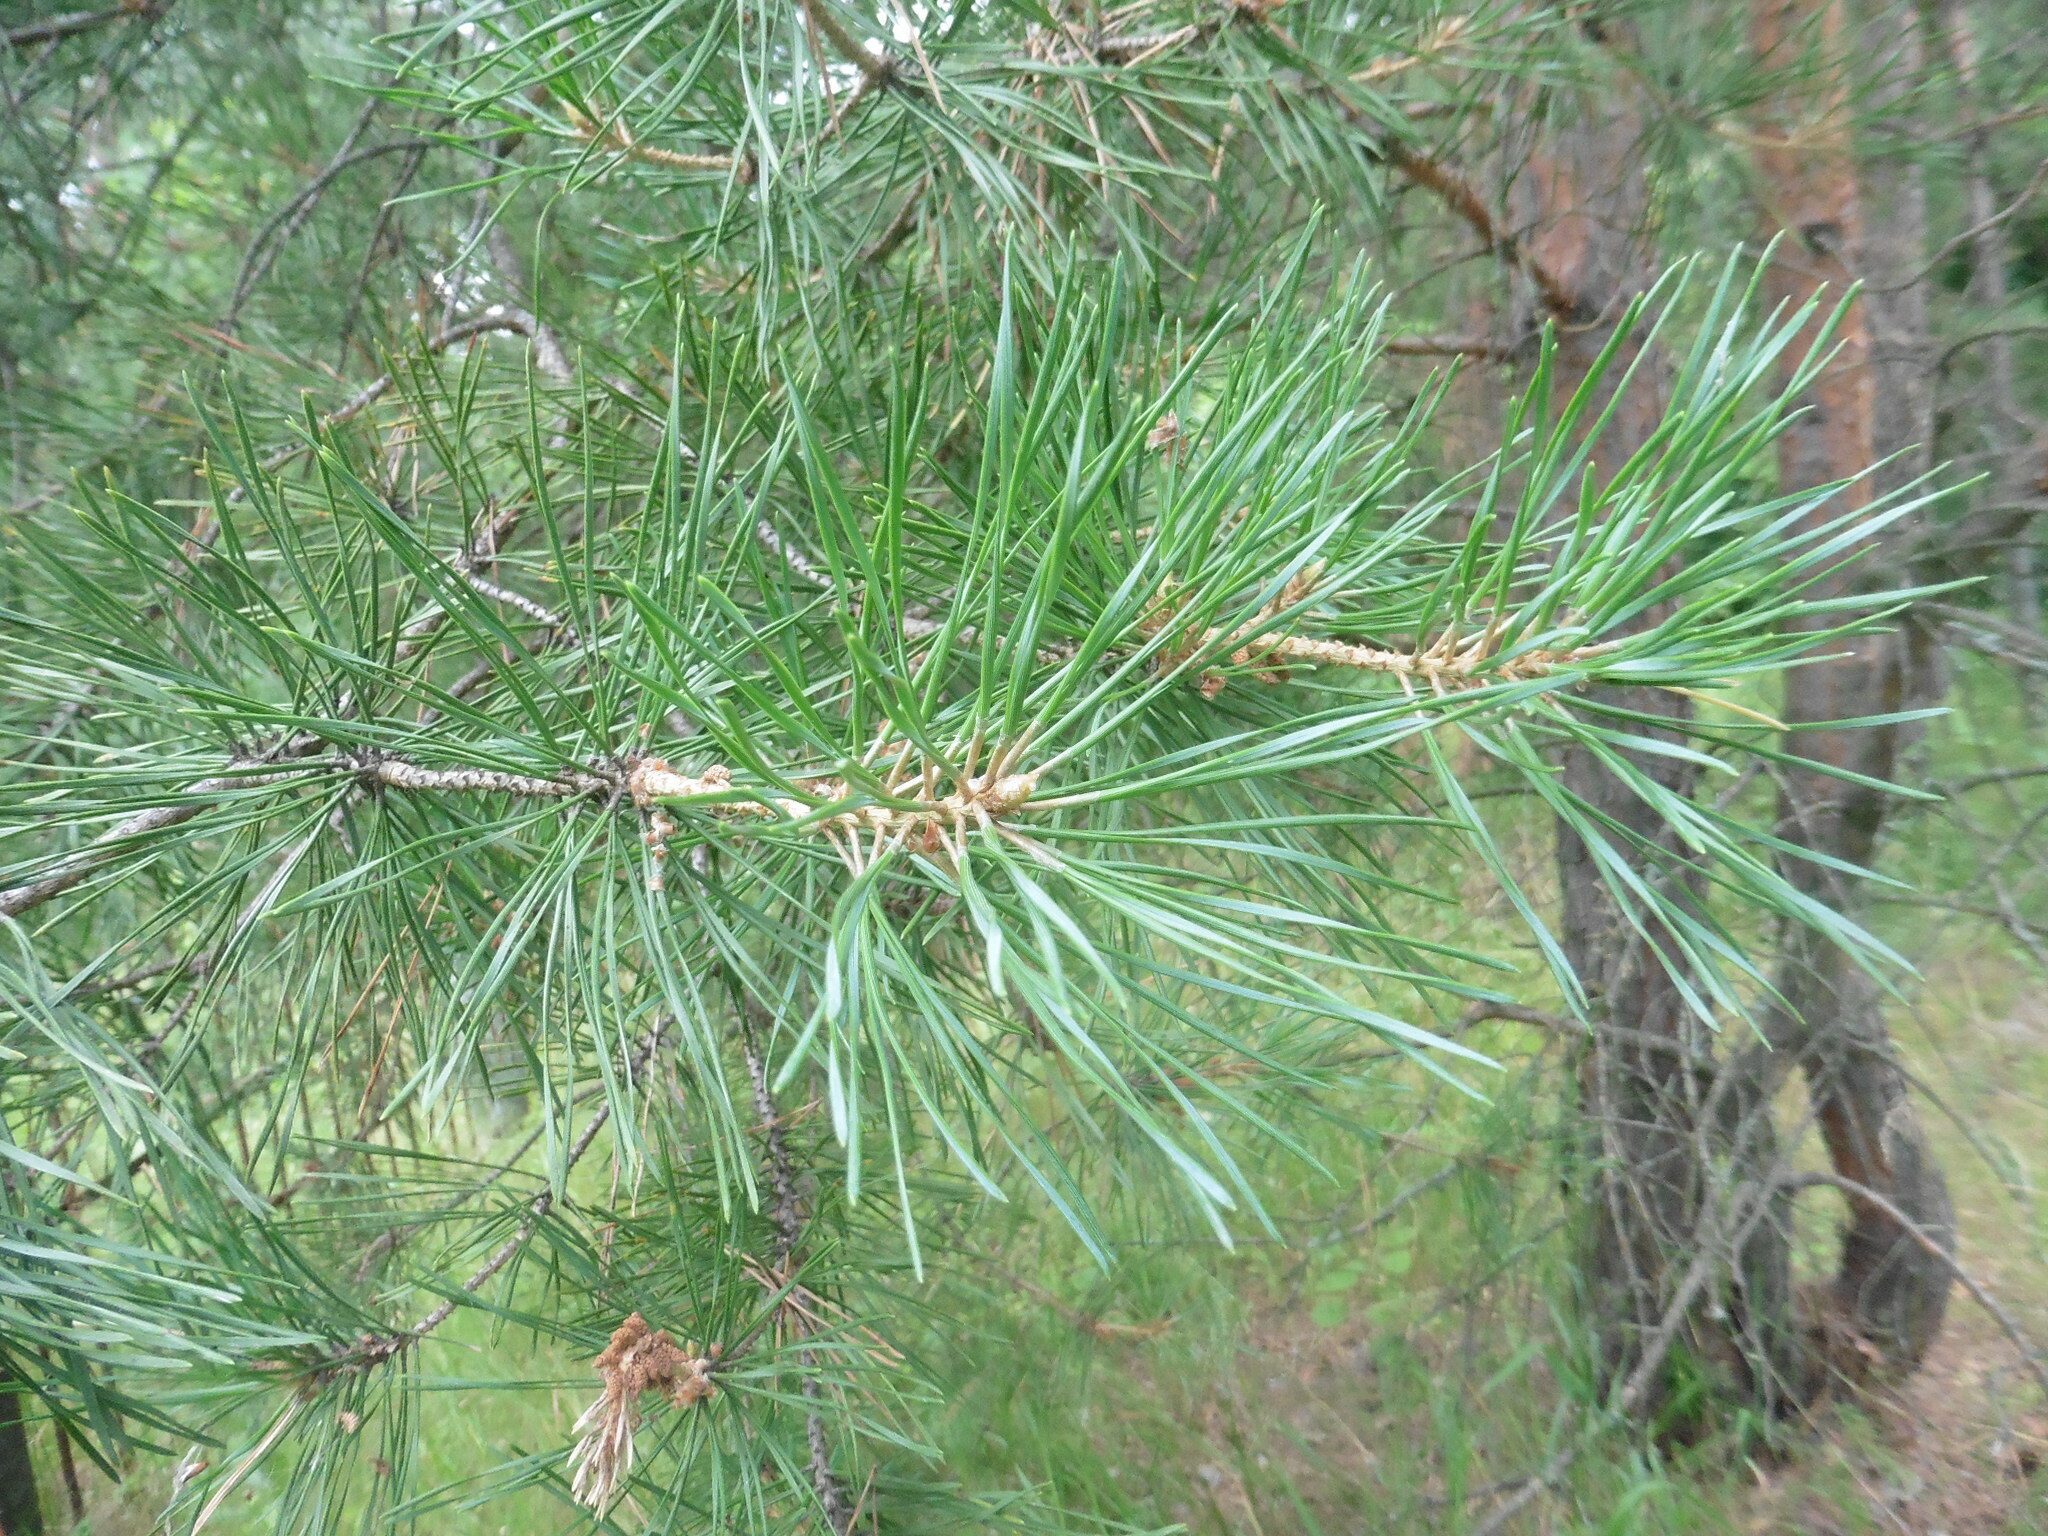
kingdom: Plantae
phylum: Tracheophyta
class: Pinopsida
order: Pinales
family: Pinaceae
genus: Pinus
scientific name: Pinus sylvestris
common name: Scots pine
